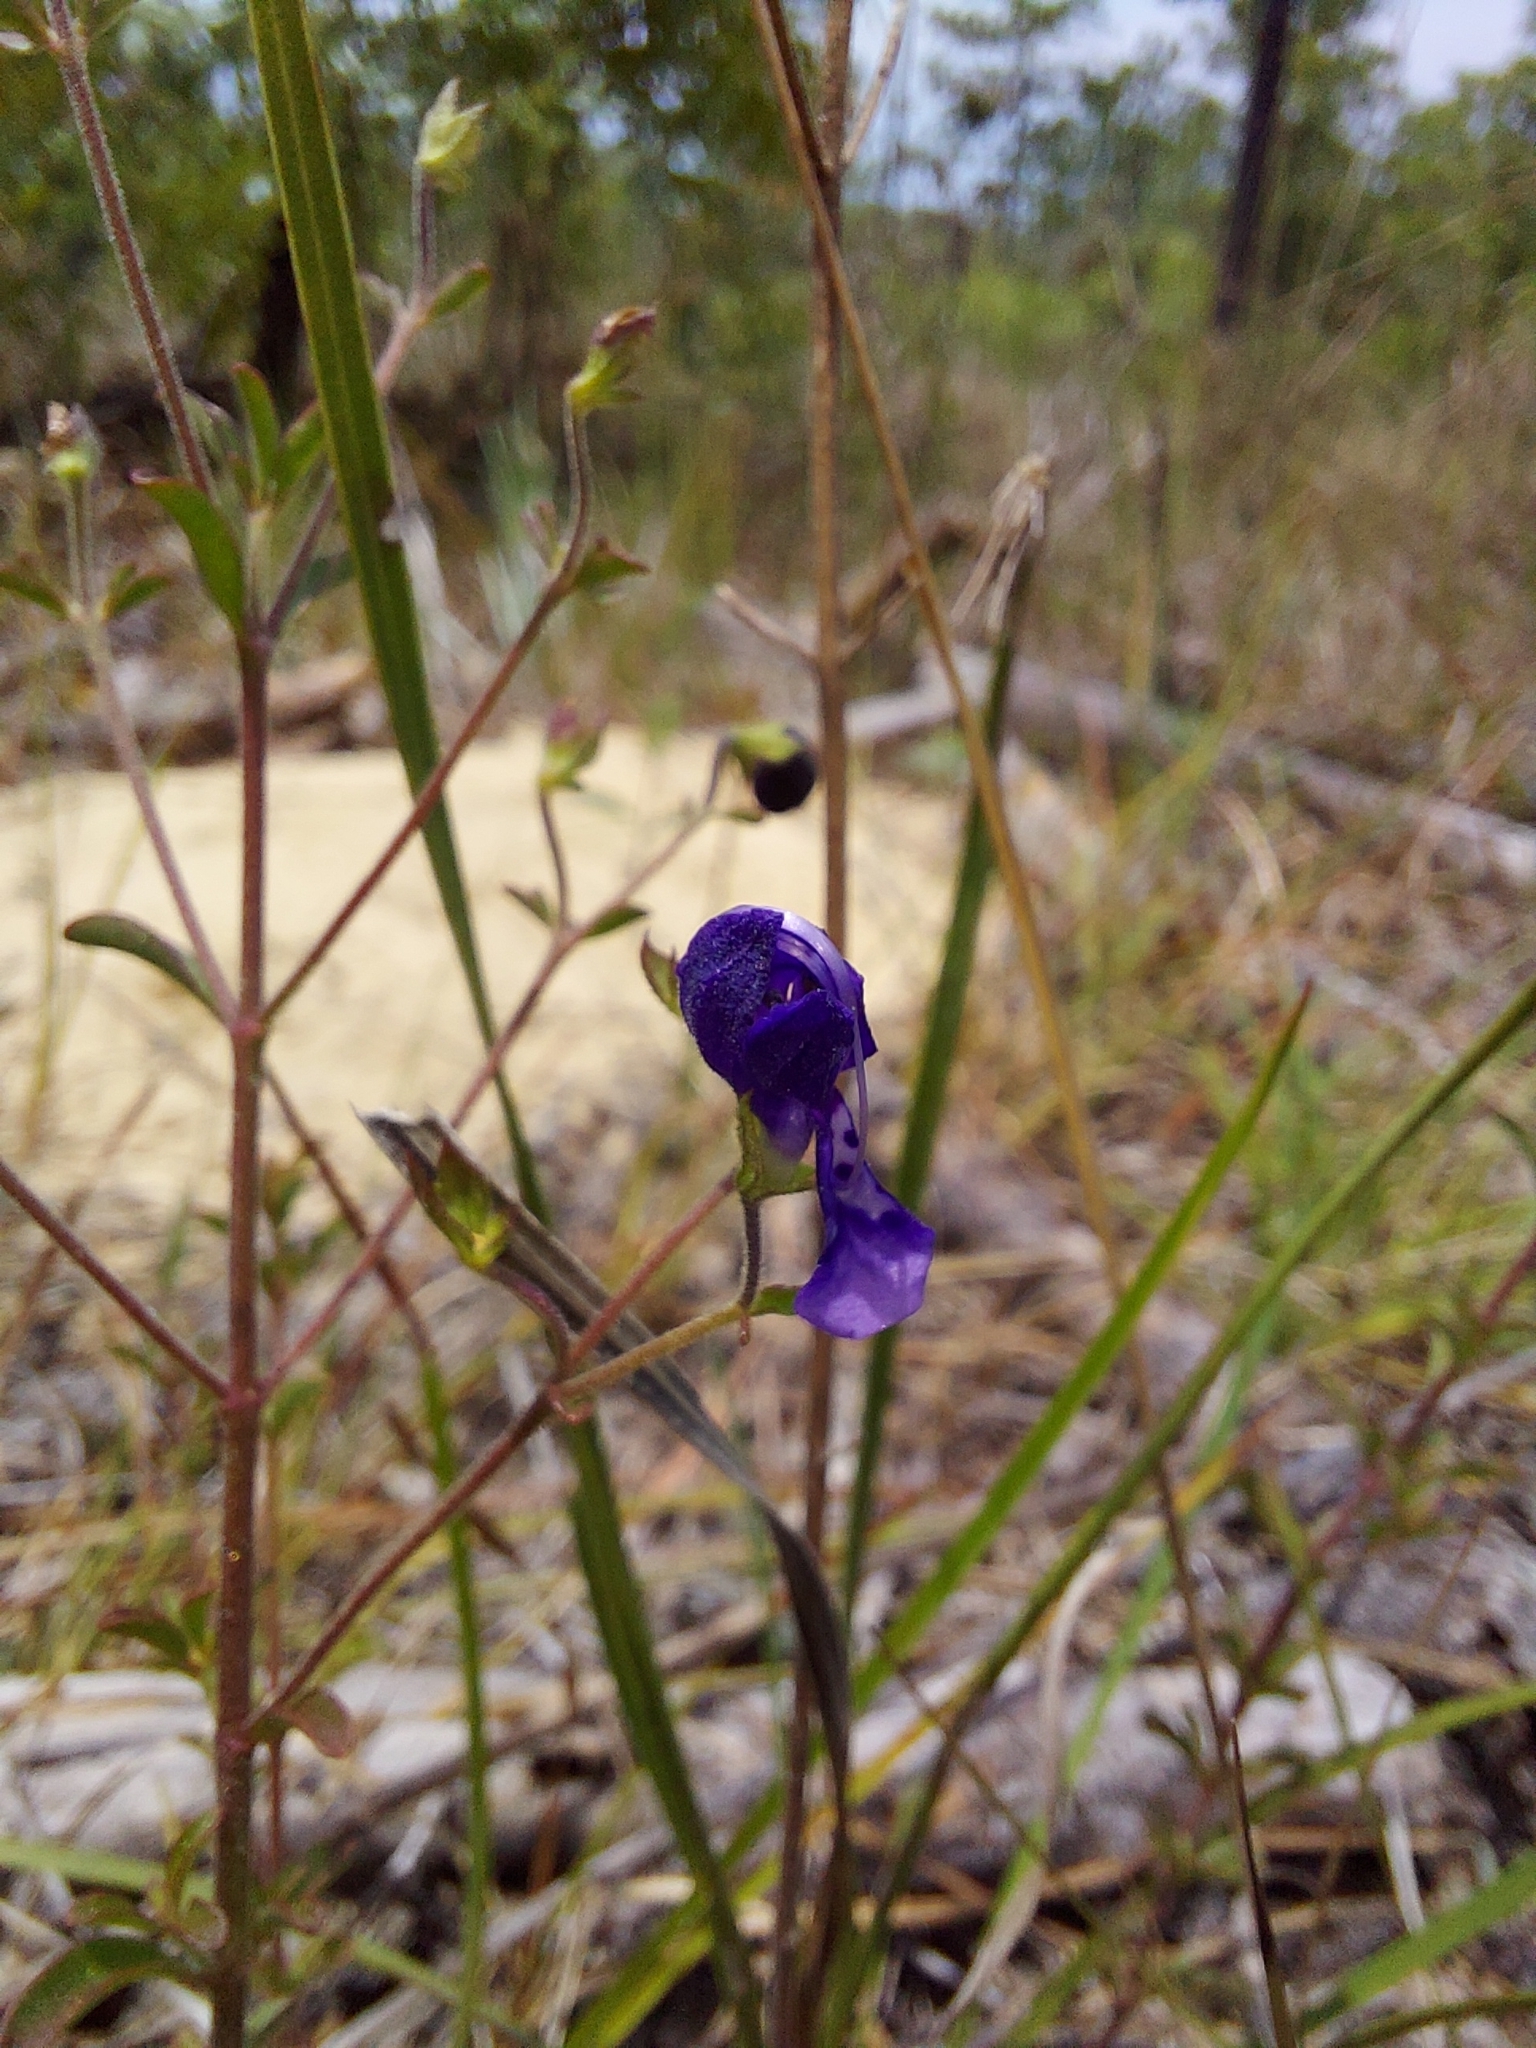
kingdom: Plantae
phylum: Tracheophyta
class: Magnoliopsida
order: Lamiales
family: Lamiaceae
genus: Trichostema
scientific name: Trichostema microphyllum
